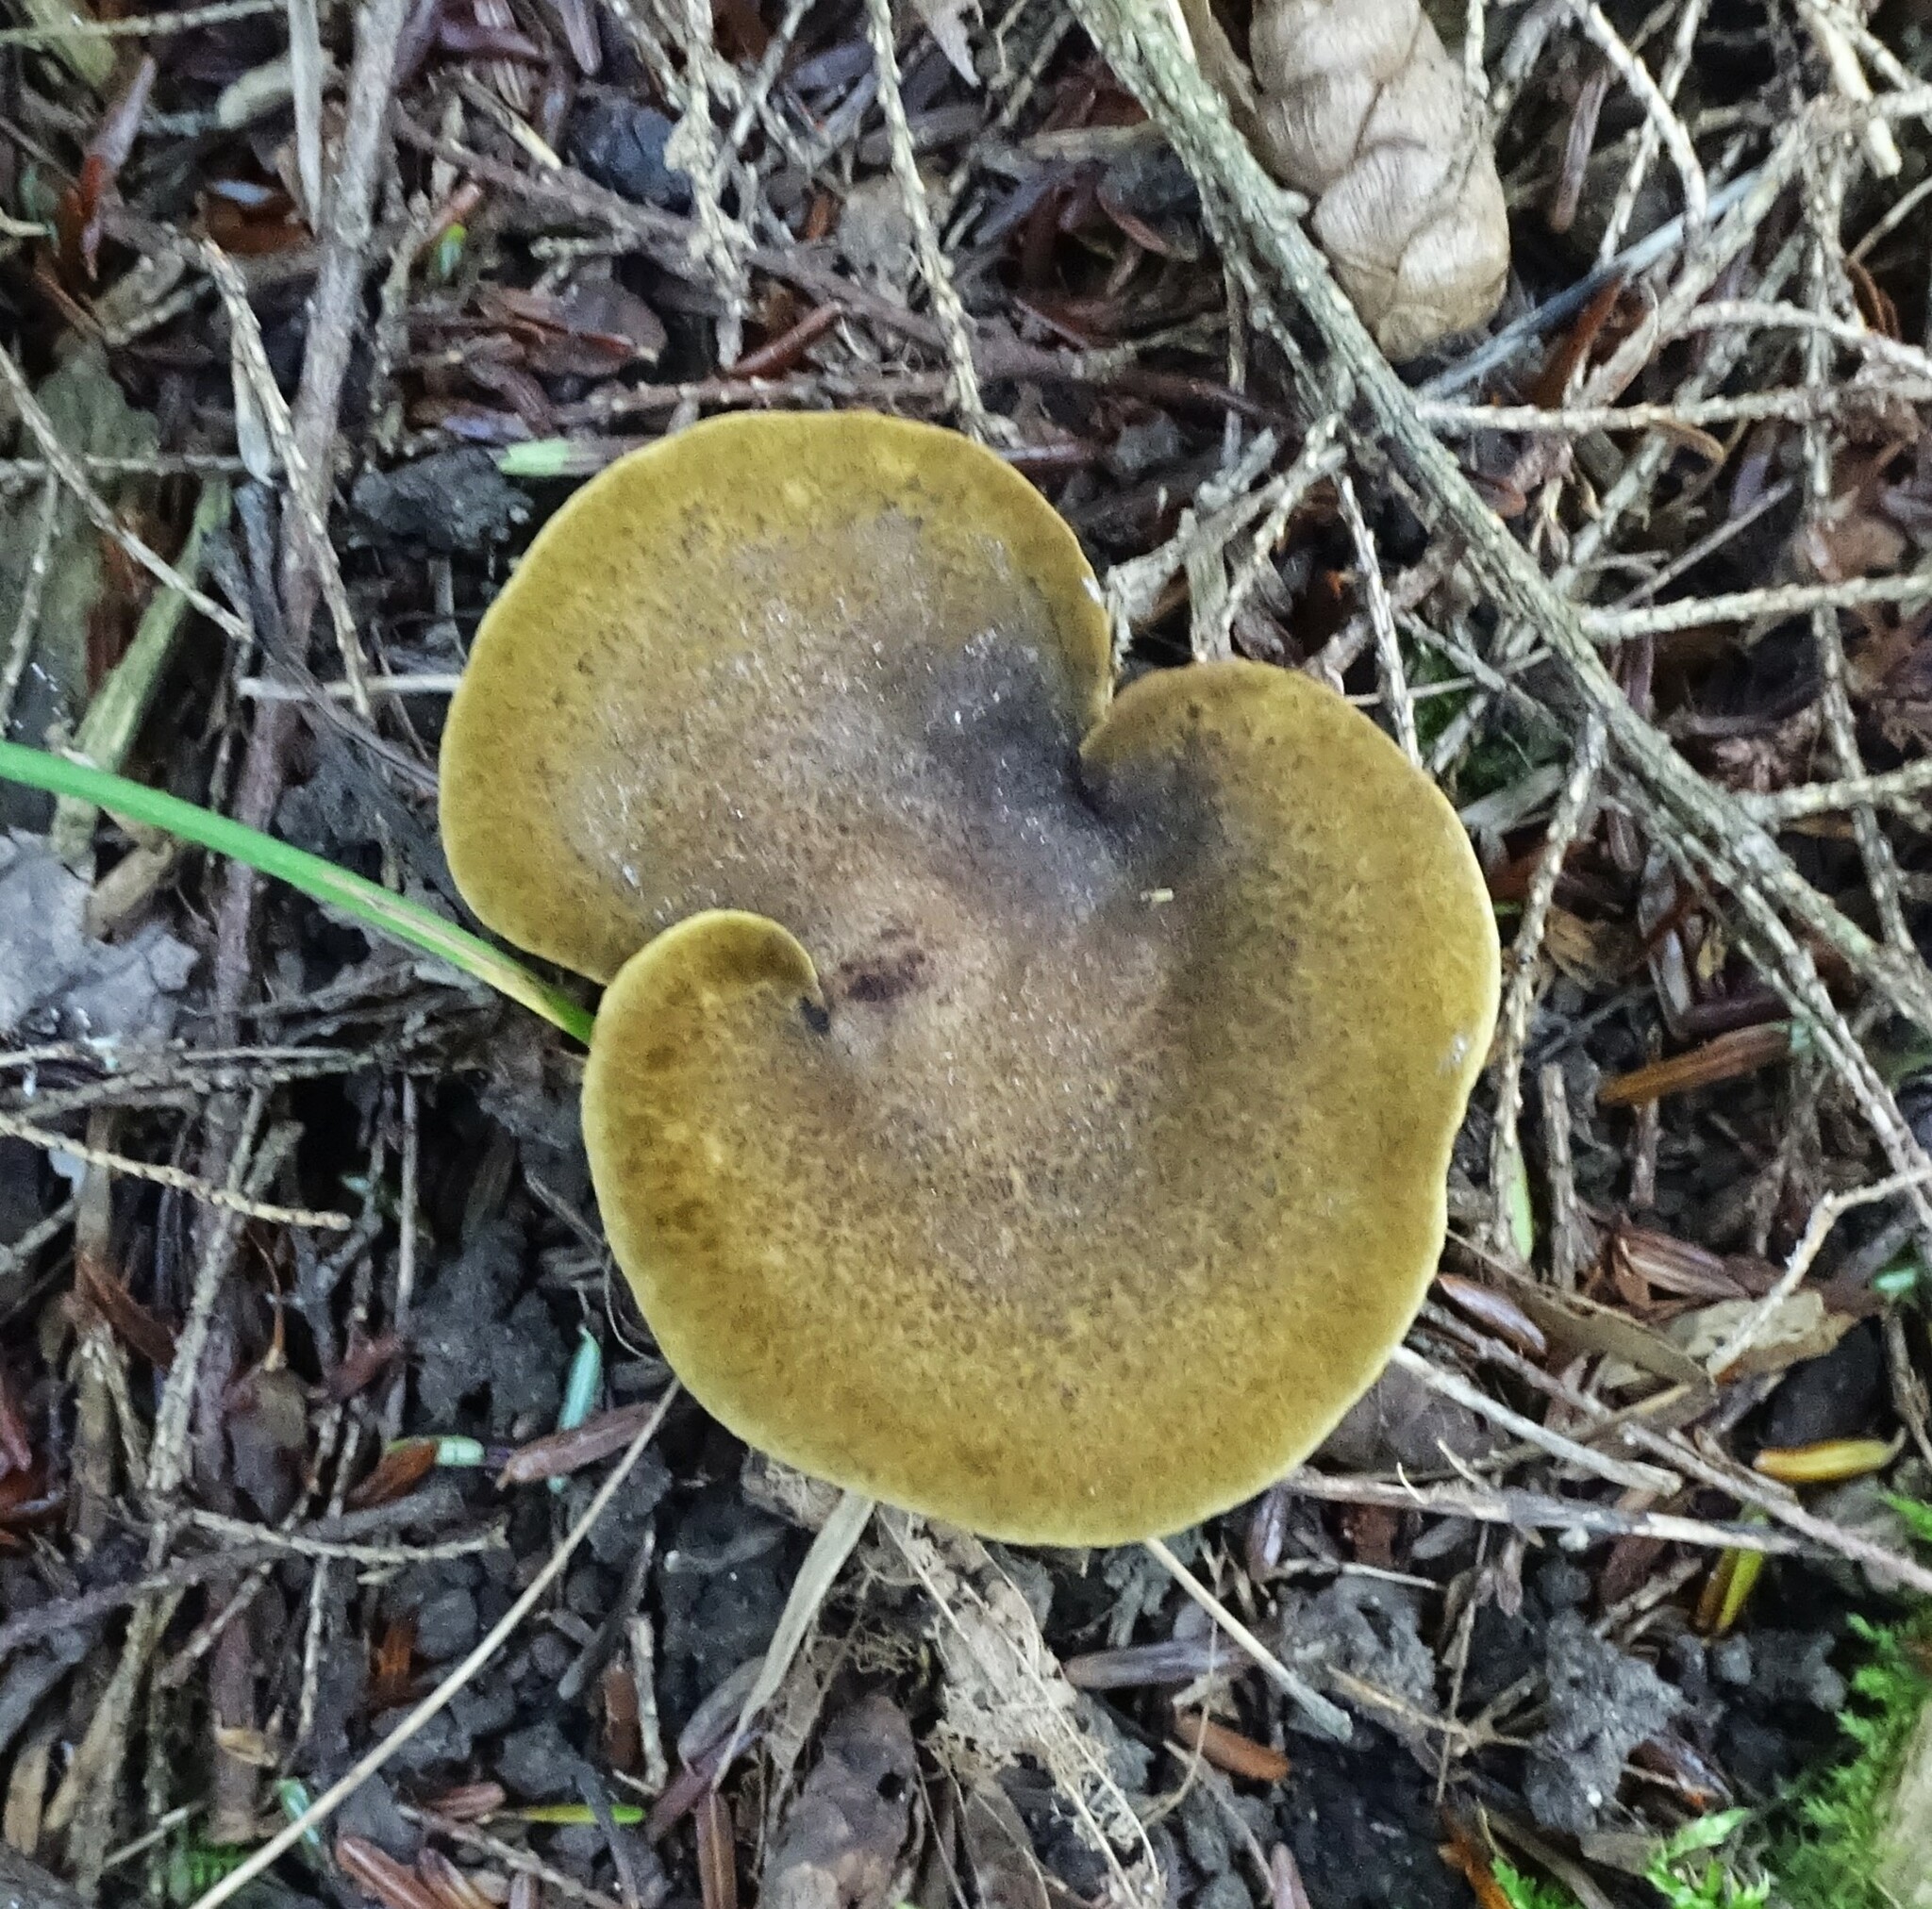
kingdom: Fungi
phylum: Basidiomycota
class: Agaricomycetes
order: Boletales
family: Boletinellaceae
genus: Boletinellus
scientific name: Boletinellus merulioides
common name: Ash tree bolete
